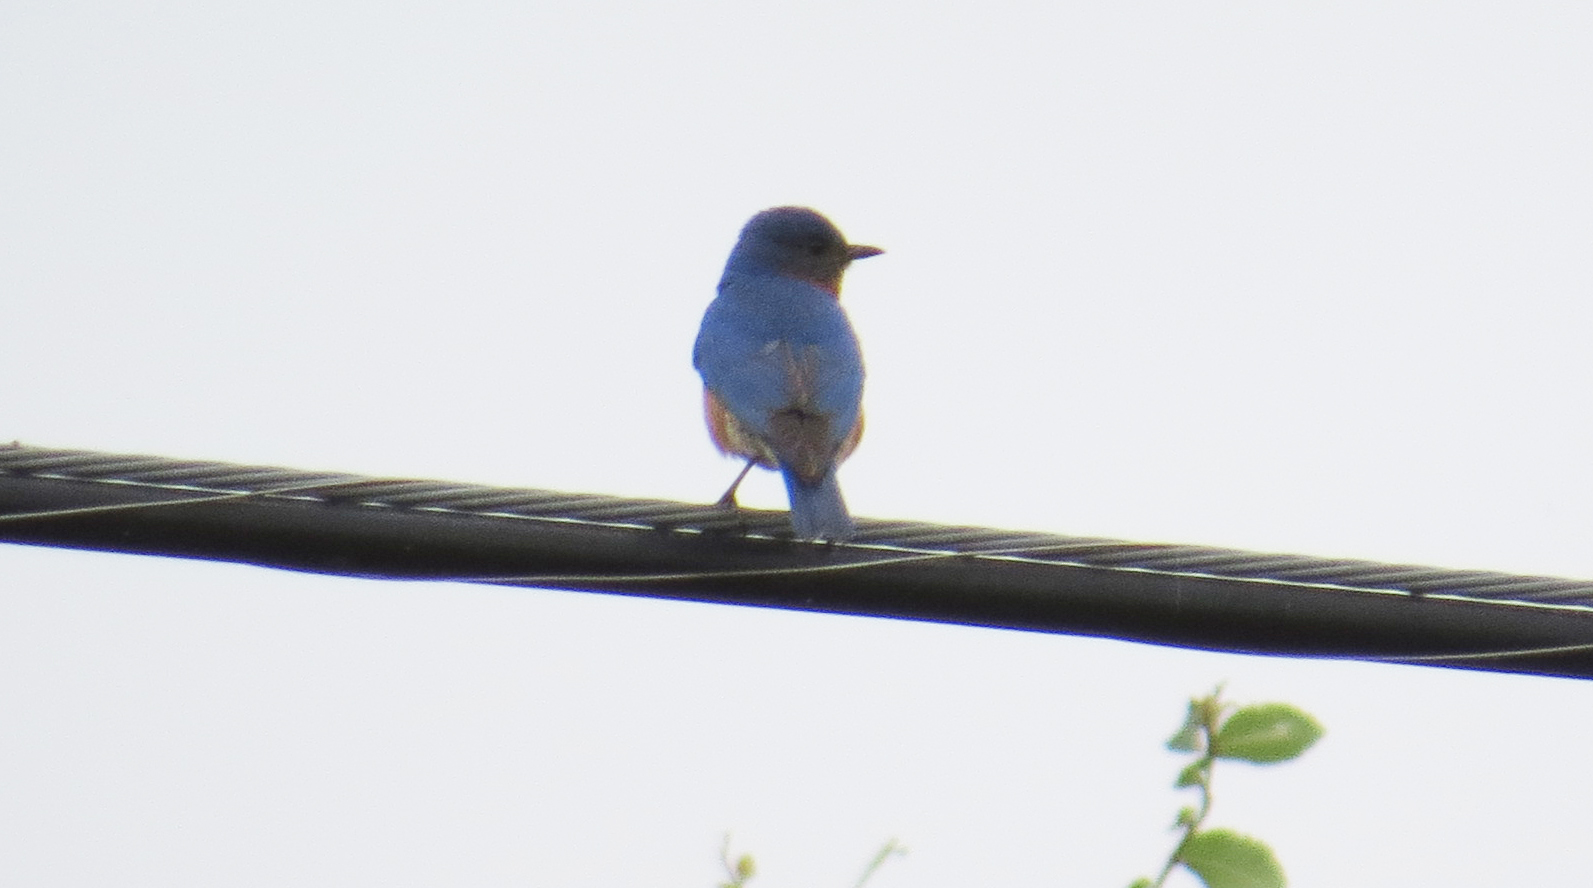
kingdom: Animalia
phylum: Chordata
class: Aves
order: Passeriformes
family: Turdidae
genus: Sialia
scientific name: Sialia sialis
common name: Eastern bluebird
